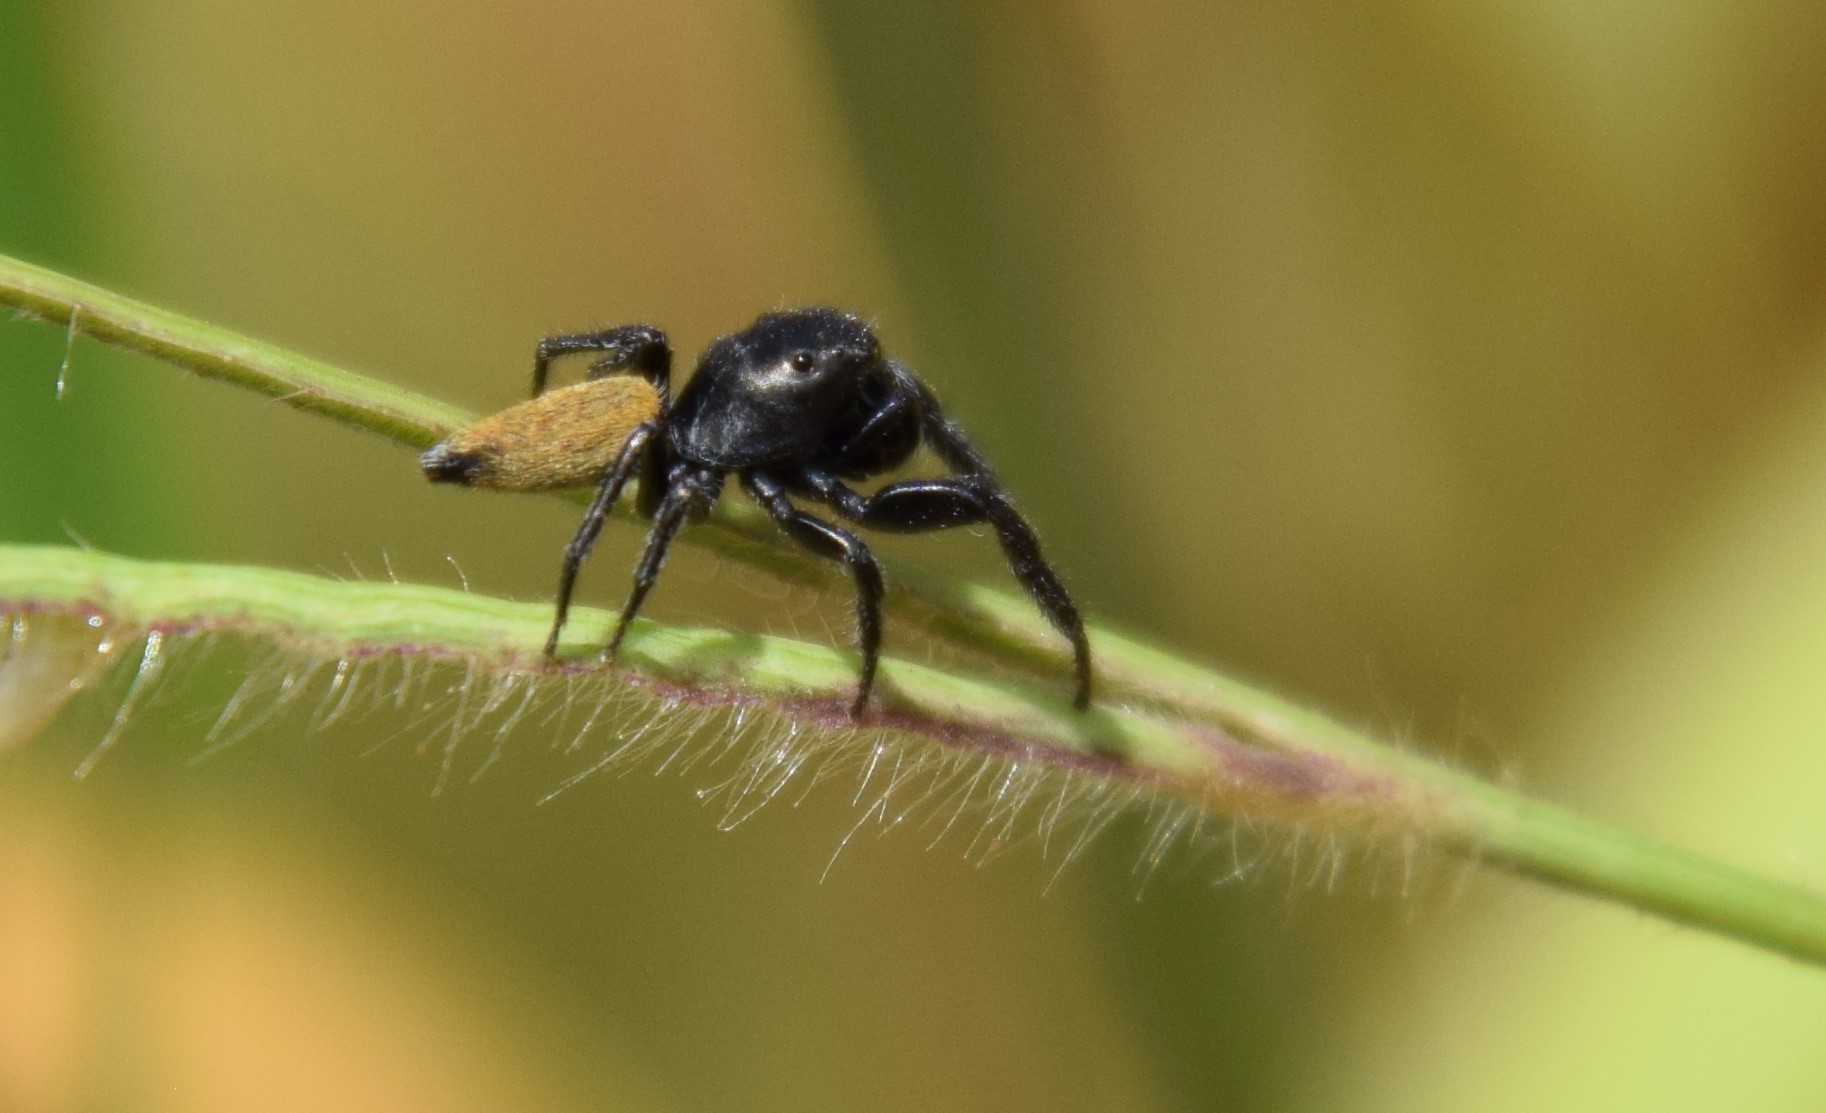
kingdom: Animalia
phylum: Arthropoda
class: Arachnida
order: Araneae
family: Salticidae
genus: Pungalina
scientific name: Pungalina semiferruginea
